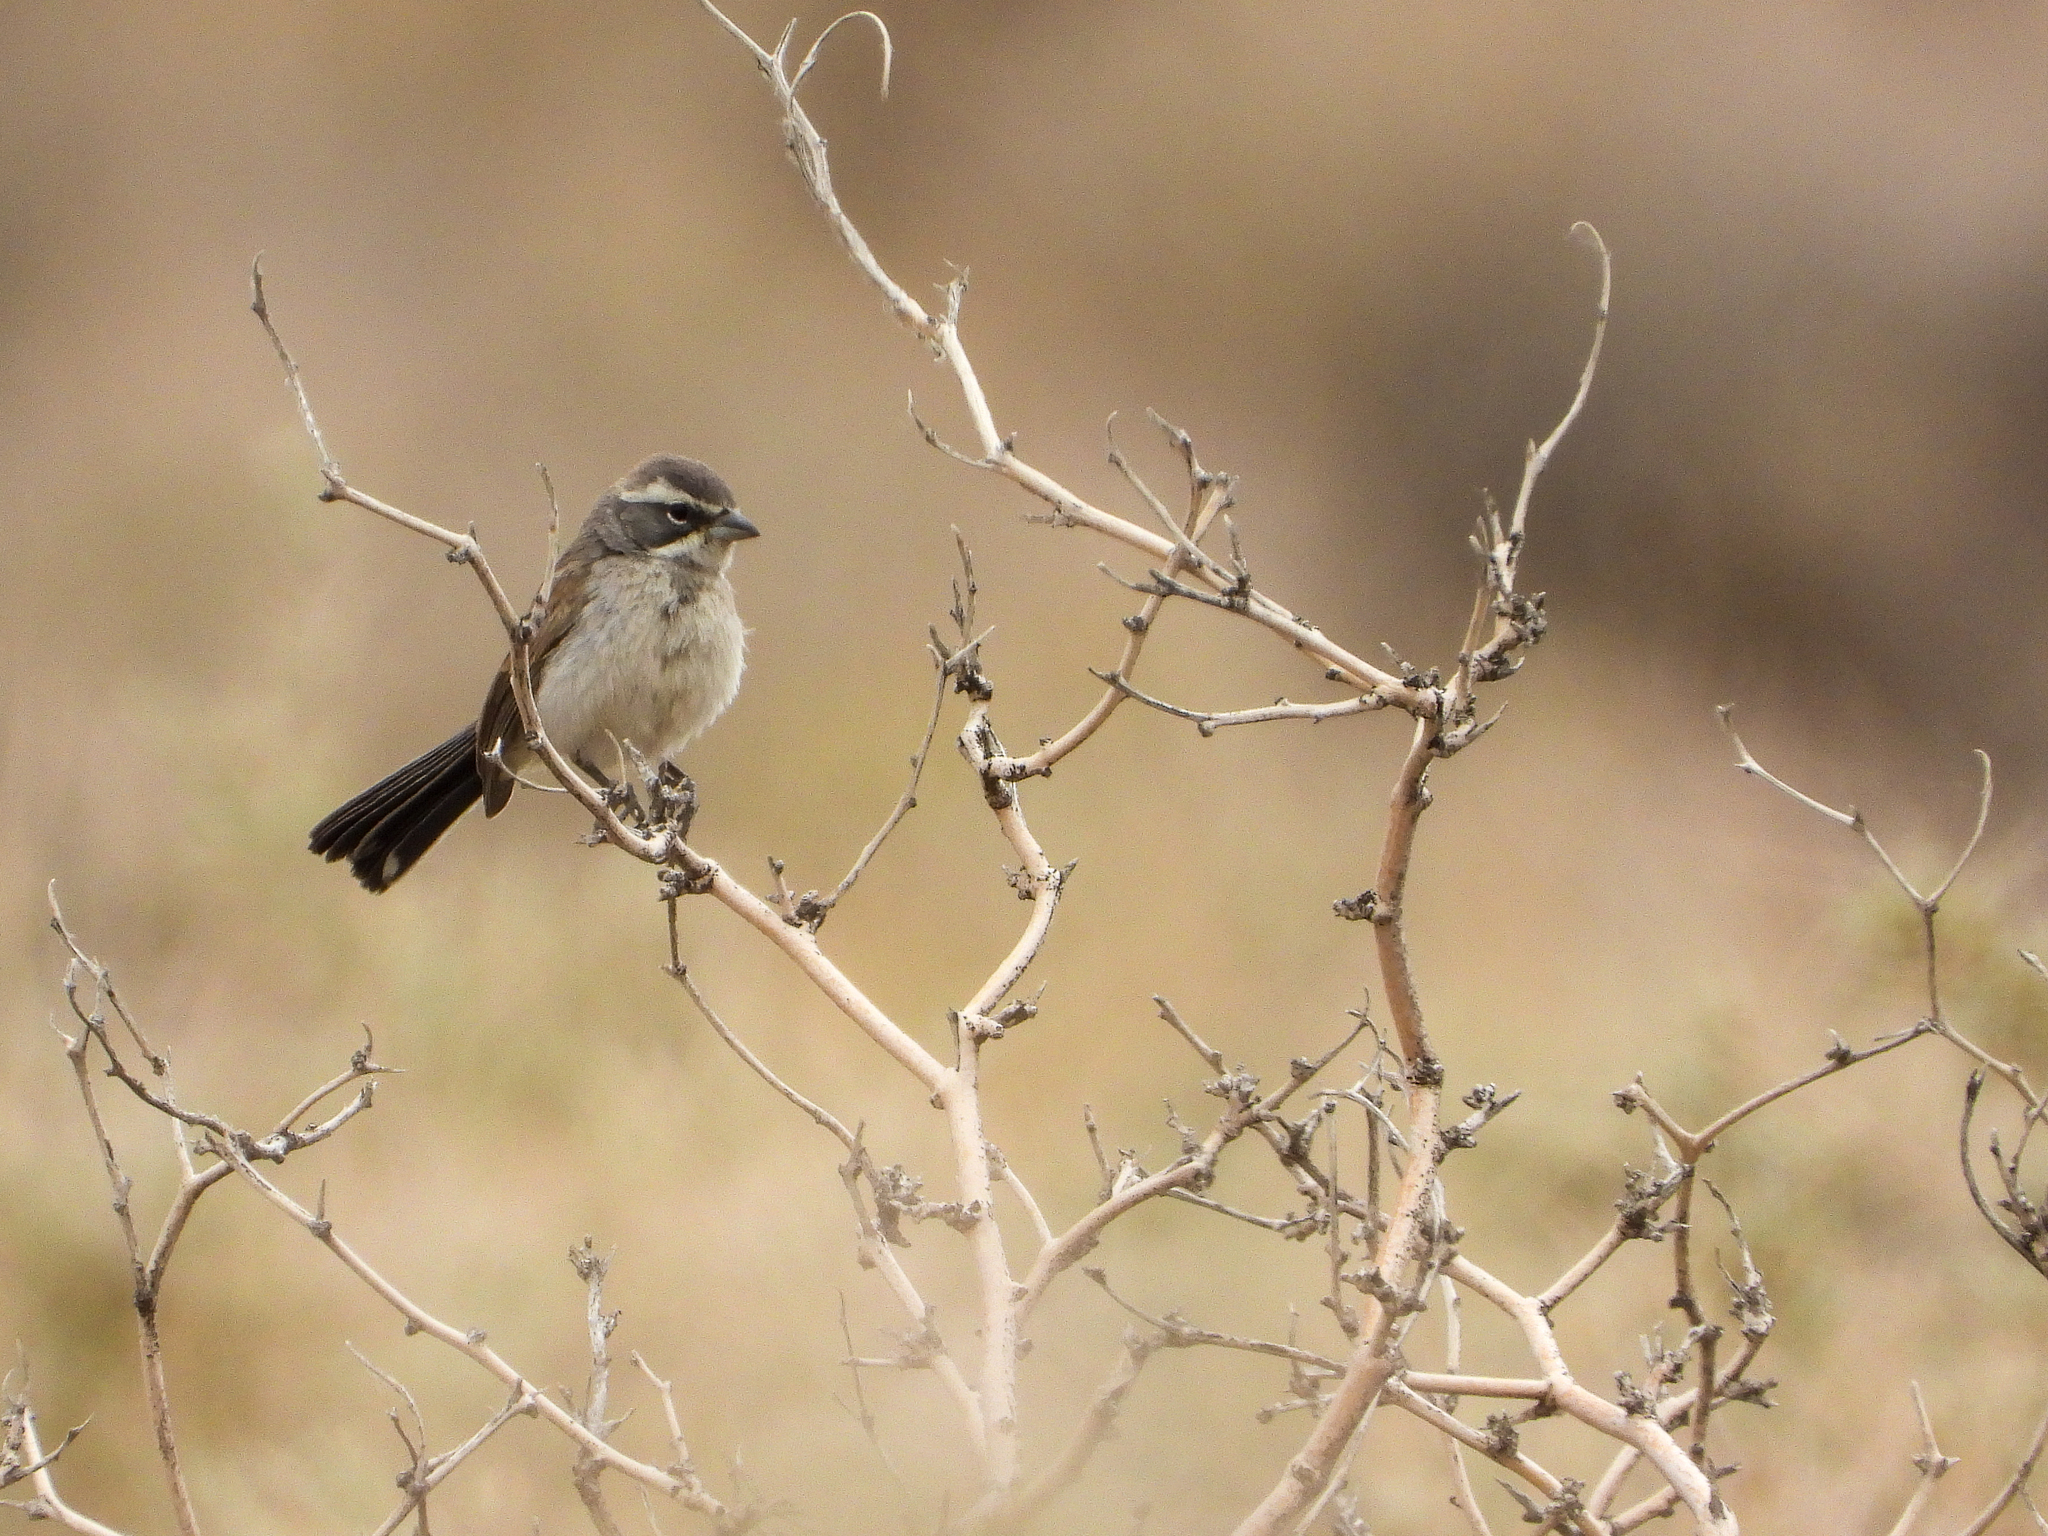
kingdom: Animalia
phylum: Chordata
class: Aves
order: Passeriformes
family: Passerellidae
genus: Amphispiza
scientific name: Amphispiza bilineata
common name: Black-throated sparrow
